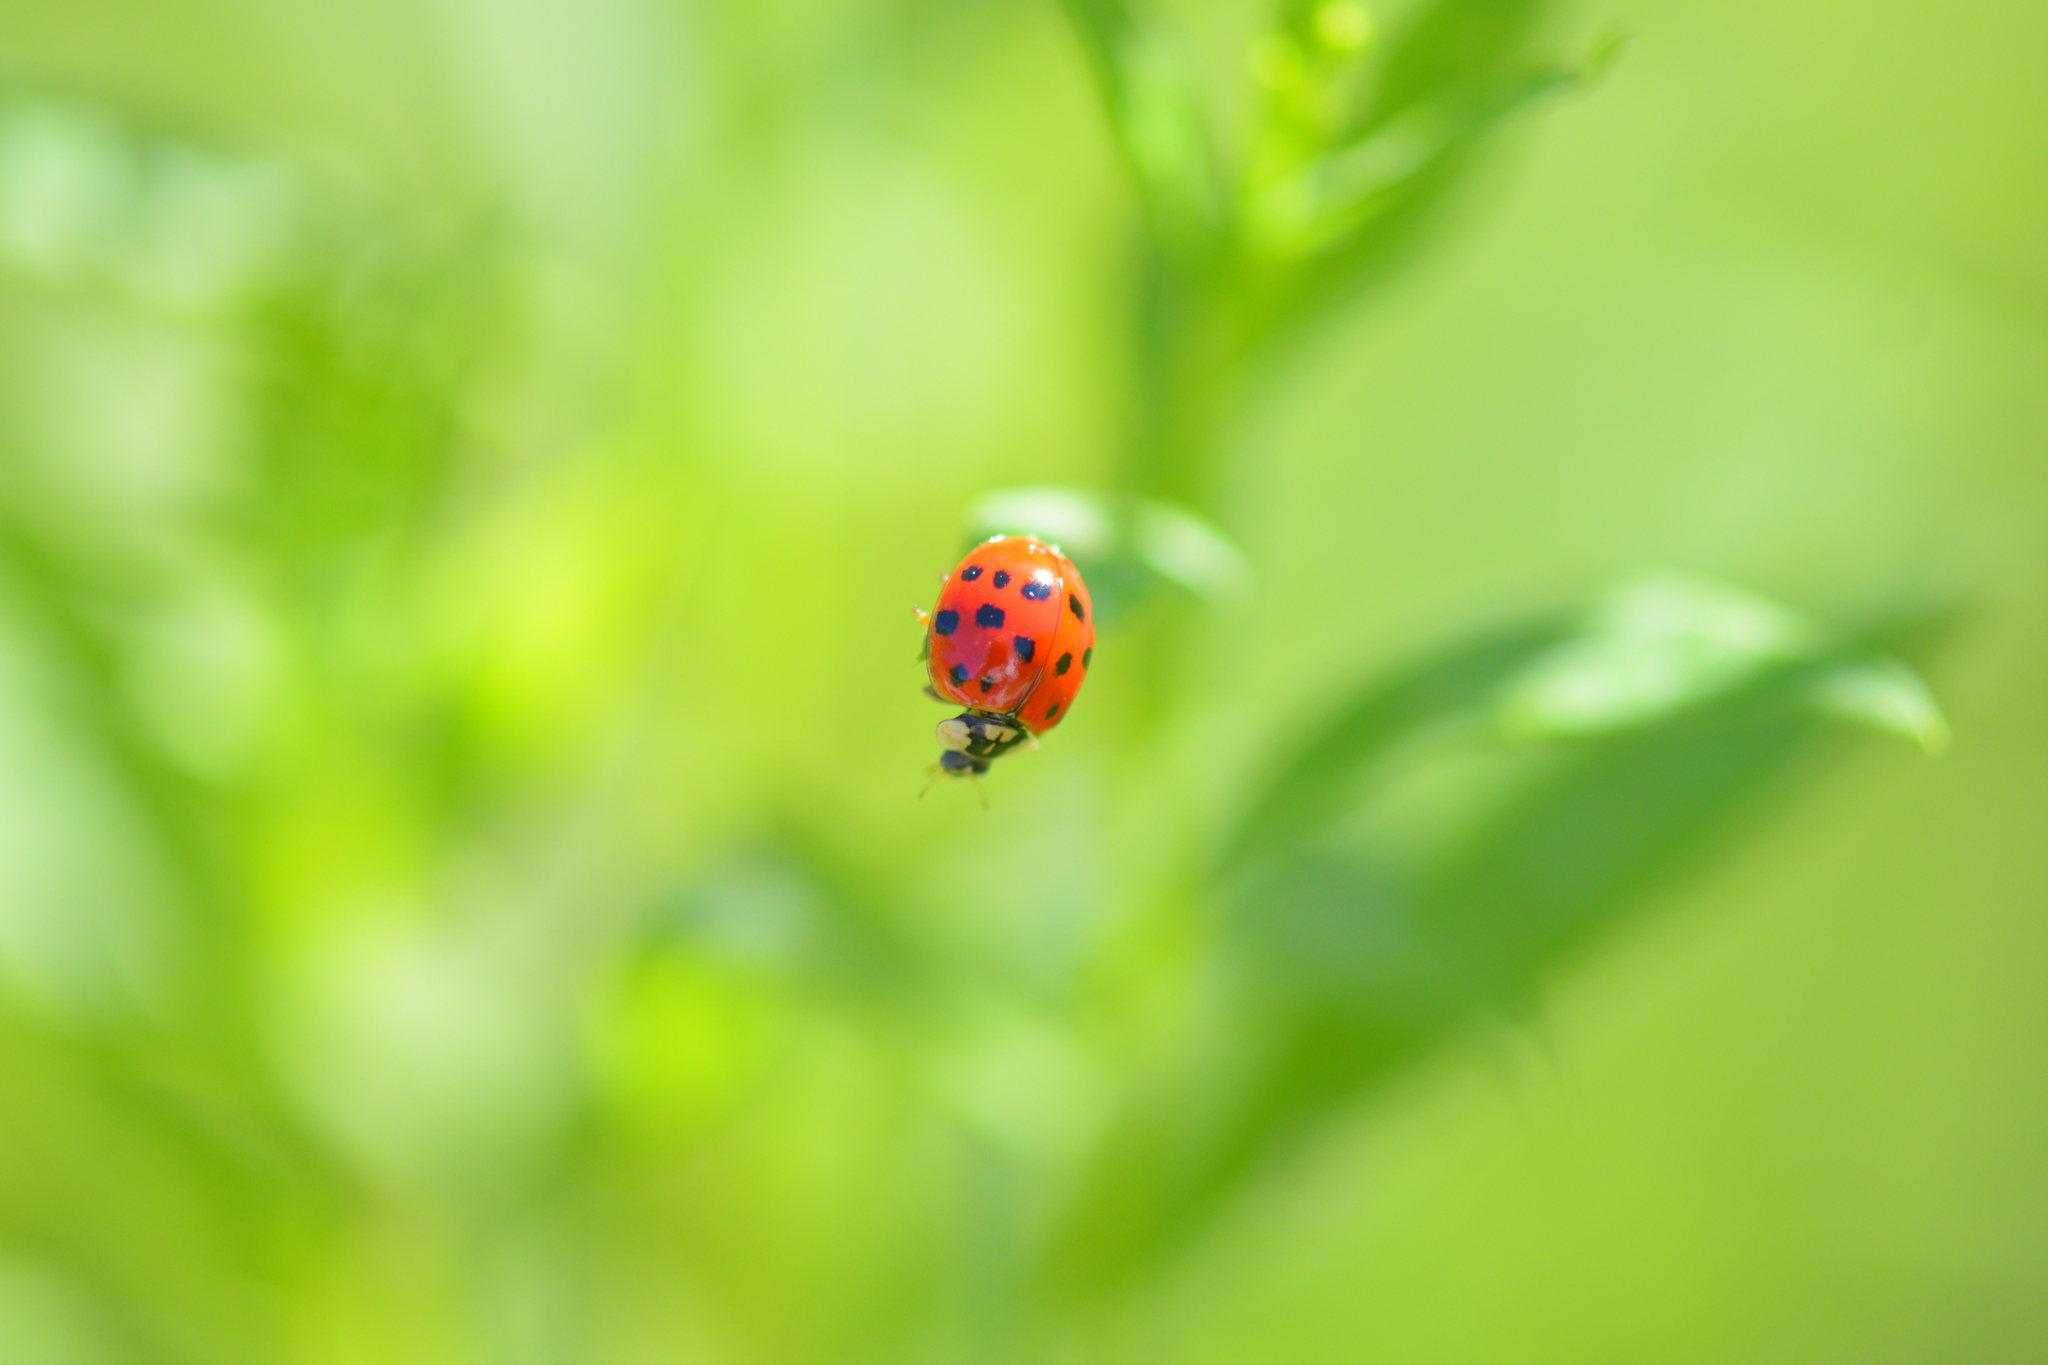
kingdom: Animalia
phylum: Arthropoda
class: Insecta
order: Coleoptera
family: Coccinellidae
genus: Harmonia
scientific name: Harmonia axyridis
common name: Harlequin ladybird
